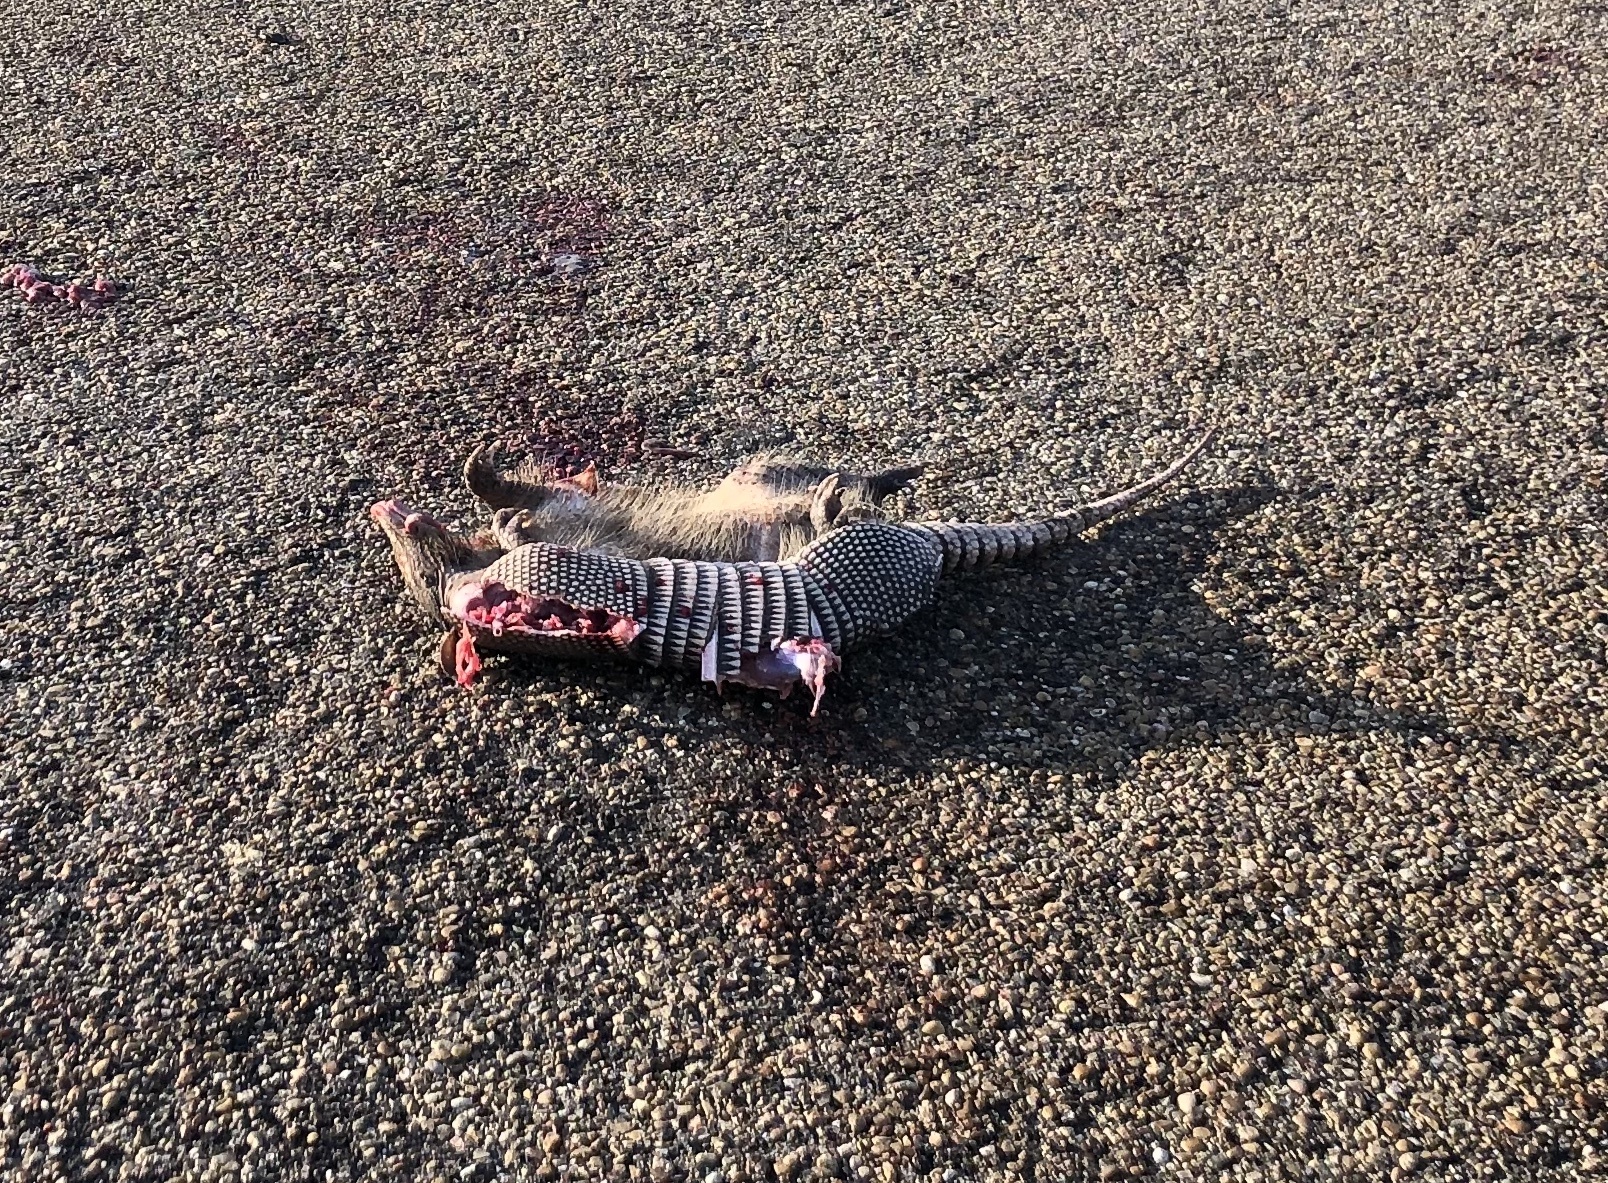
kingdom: Animalia
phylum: Chordata
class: Mammalia
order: Cingulata
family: Dasypodidae
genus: Dasypus
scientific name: Dasypus novemcinctus
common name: Nine-banded armadillo
